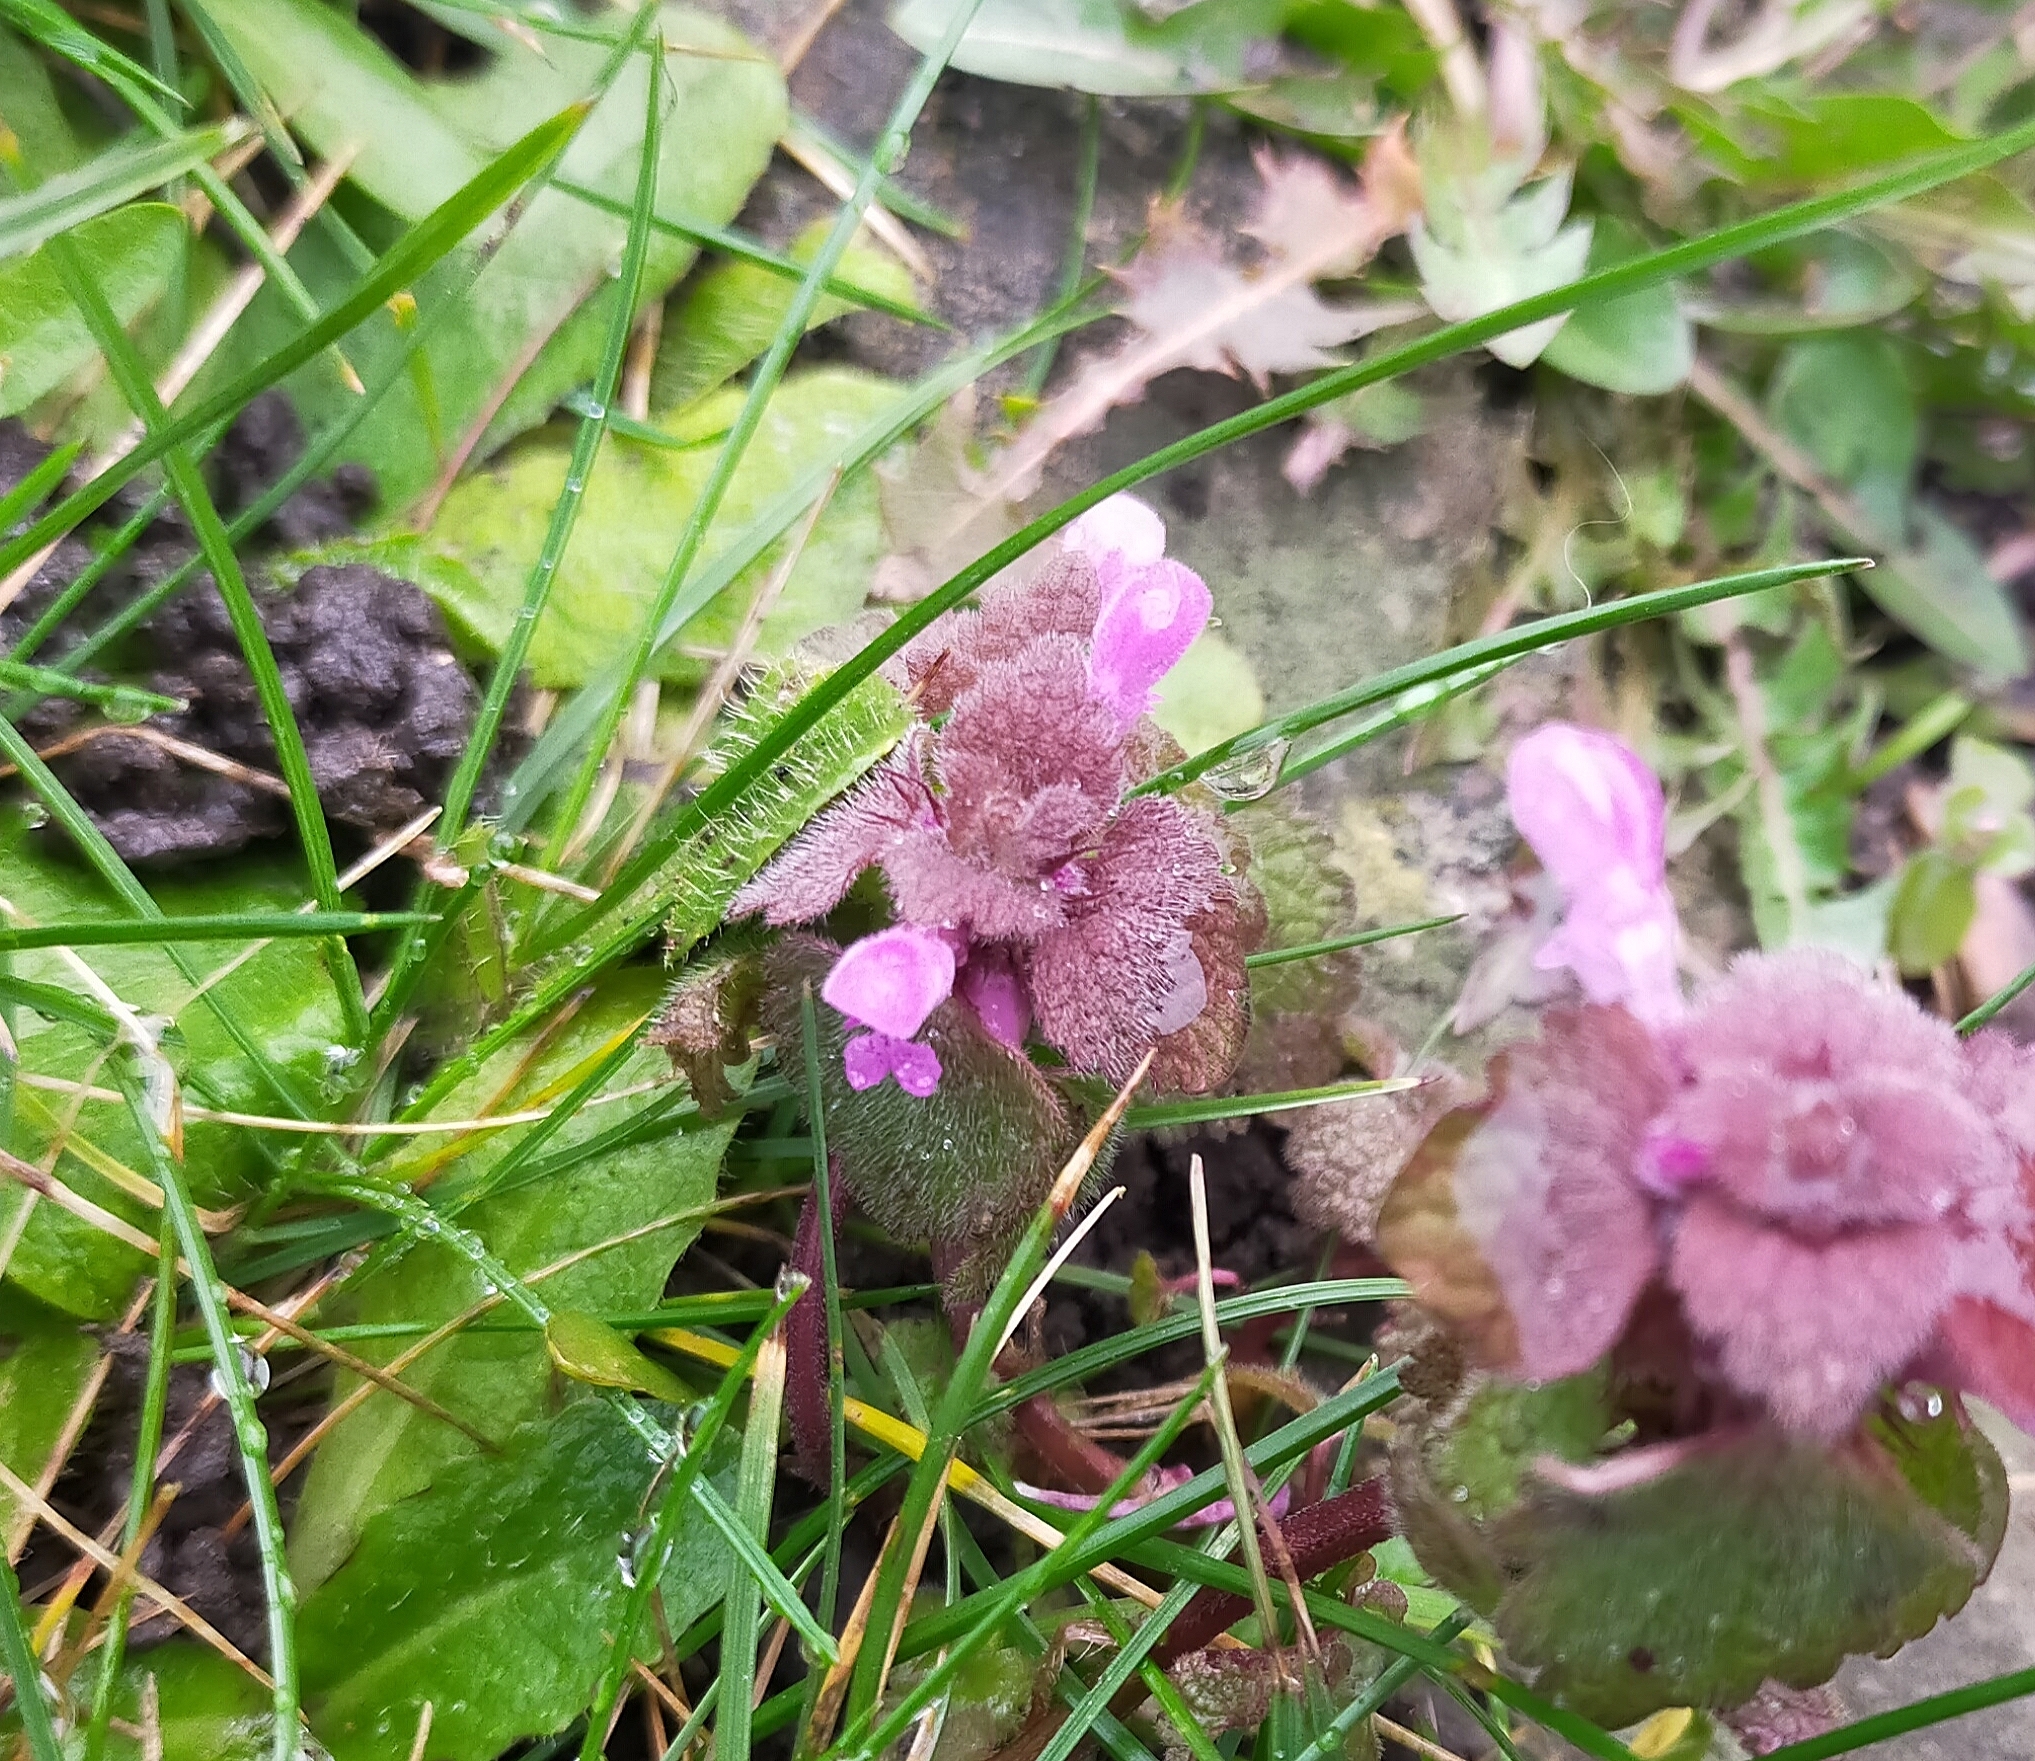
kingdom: Plantae
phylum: Tracheophyta
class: Magnoliopsida
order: Lamiales
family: Lamiaceae
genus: Lamium
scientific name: Lamium purpureum
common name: Red dead-nettle
